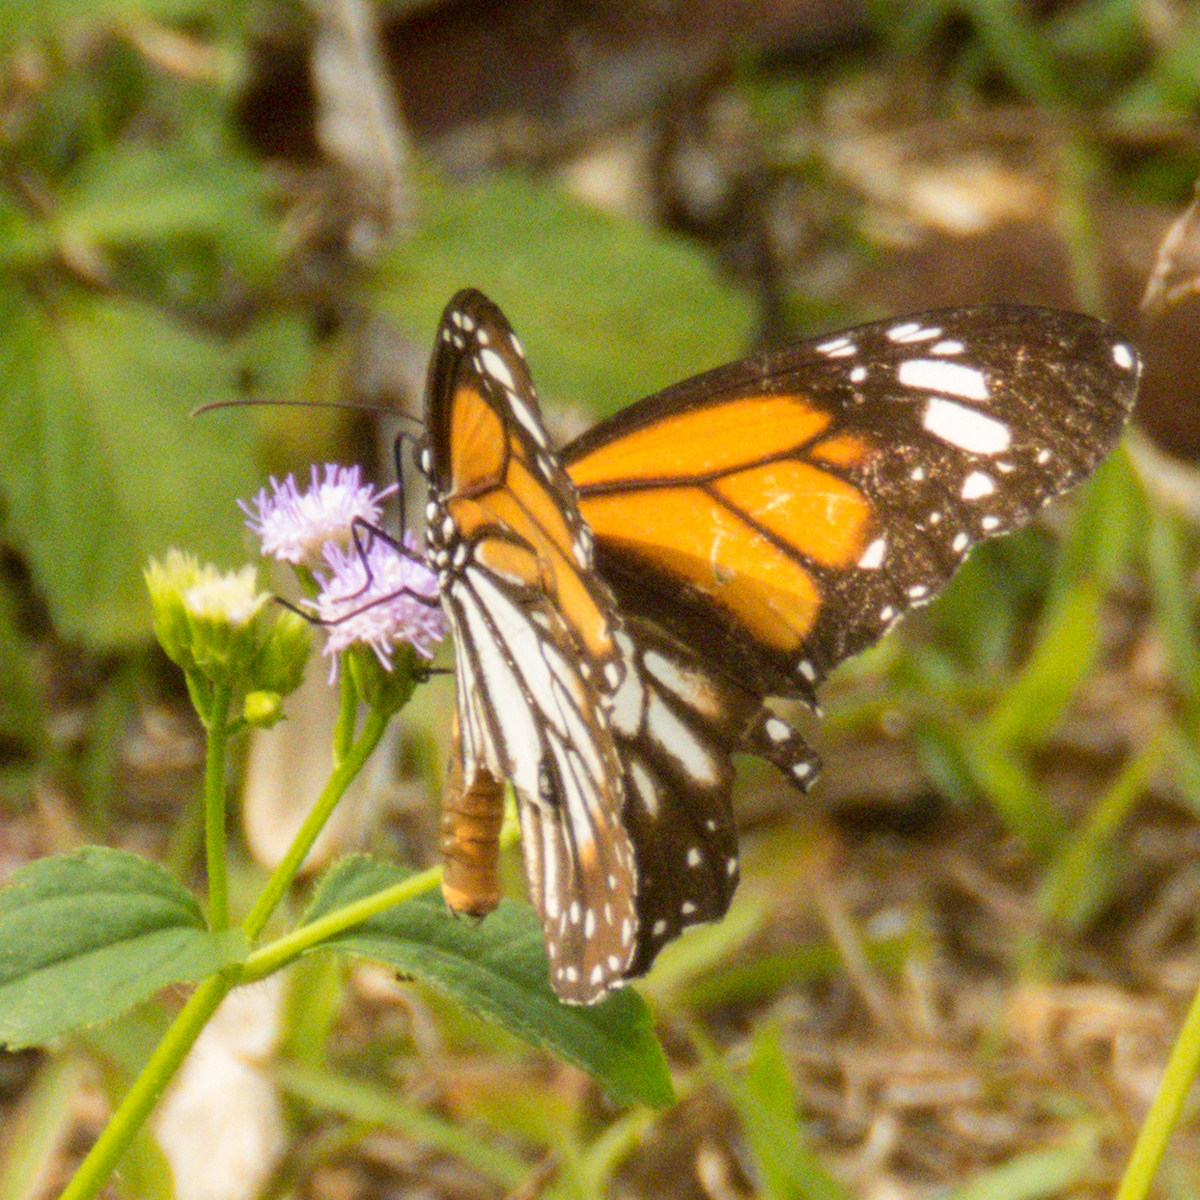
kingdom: Animalia
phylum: Arthropoda
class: Insecta
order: Lepidoptera
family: Nymphalidae
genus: Danaus
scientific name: Danaus melanippus
